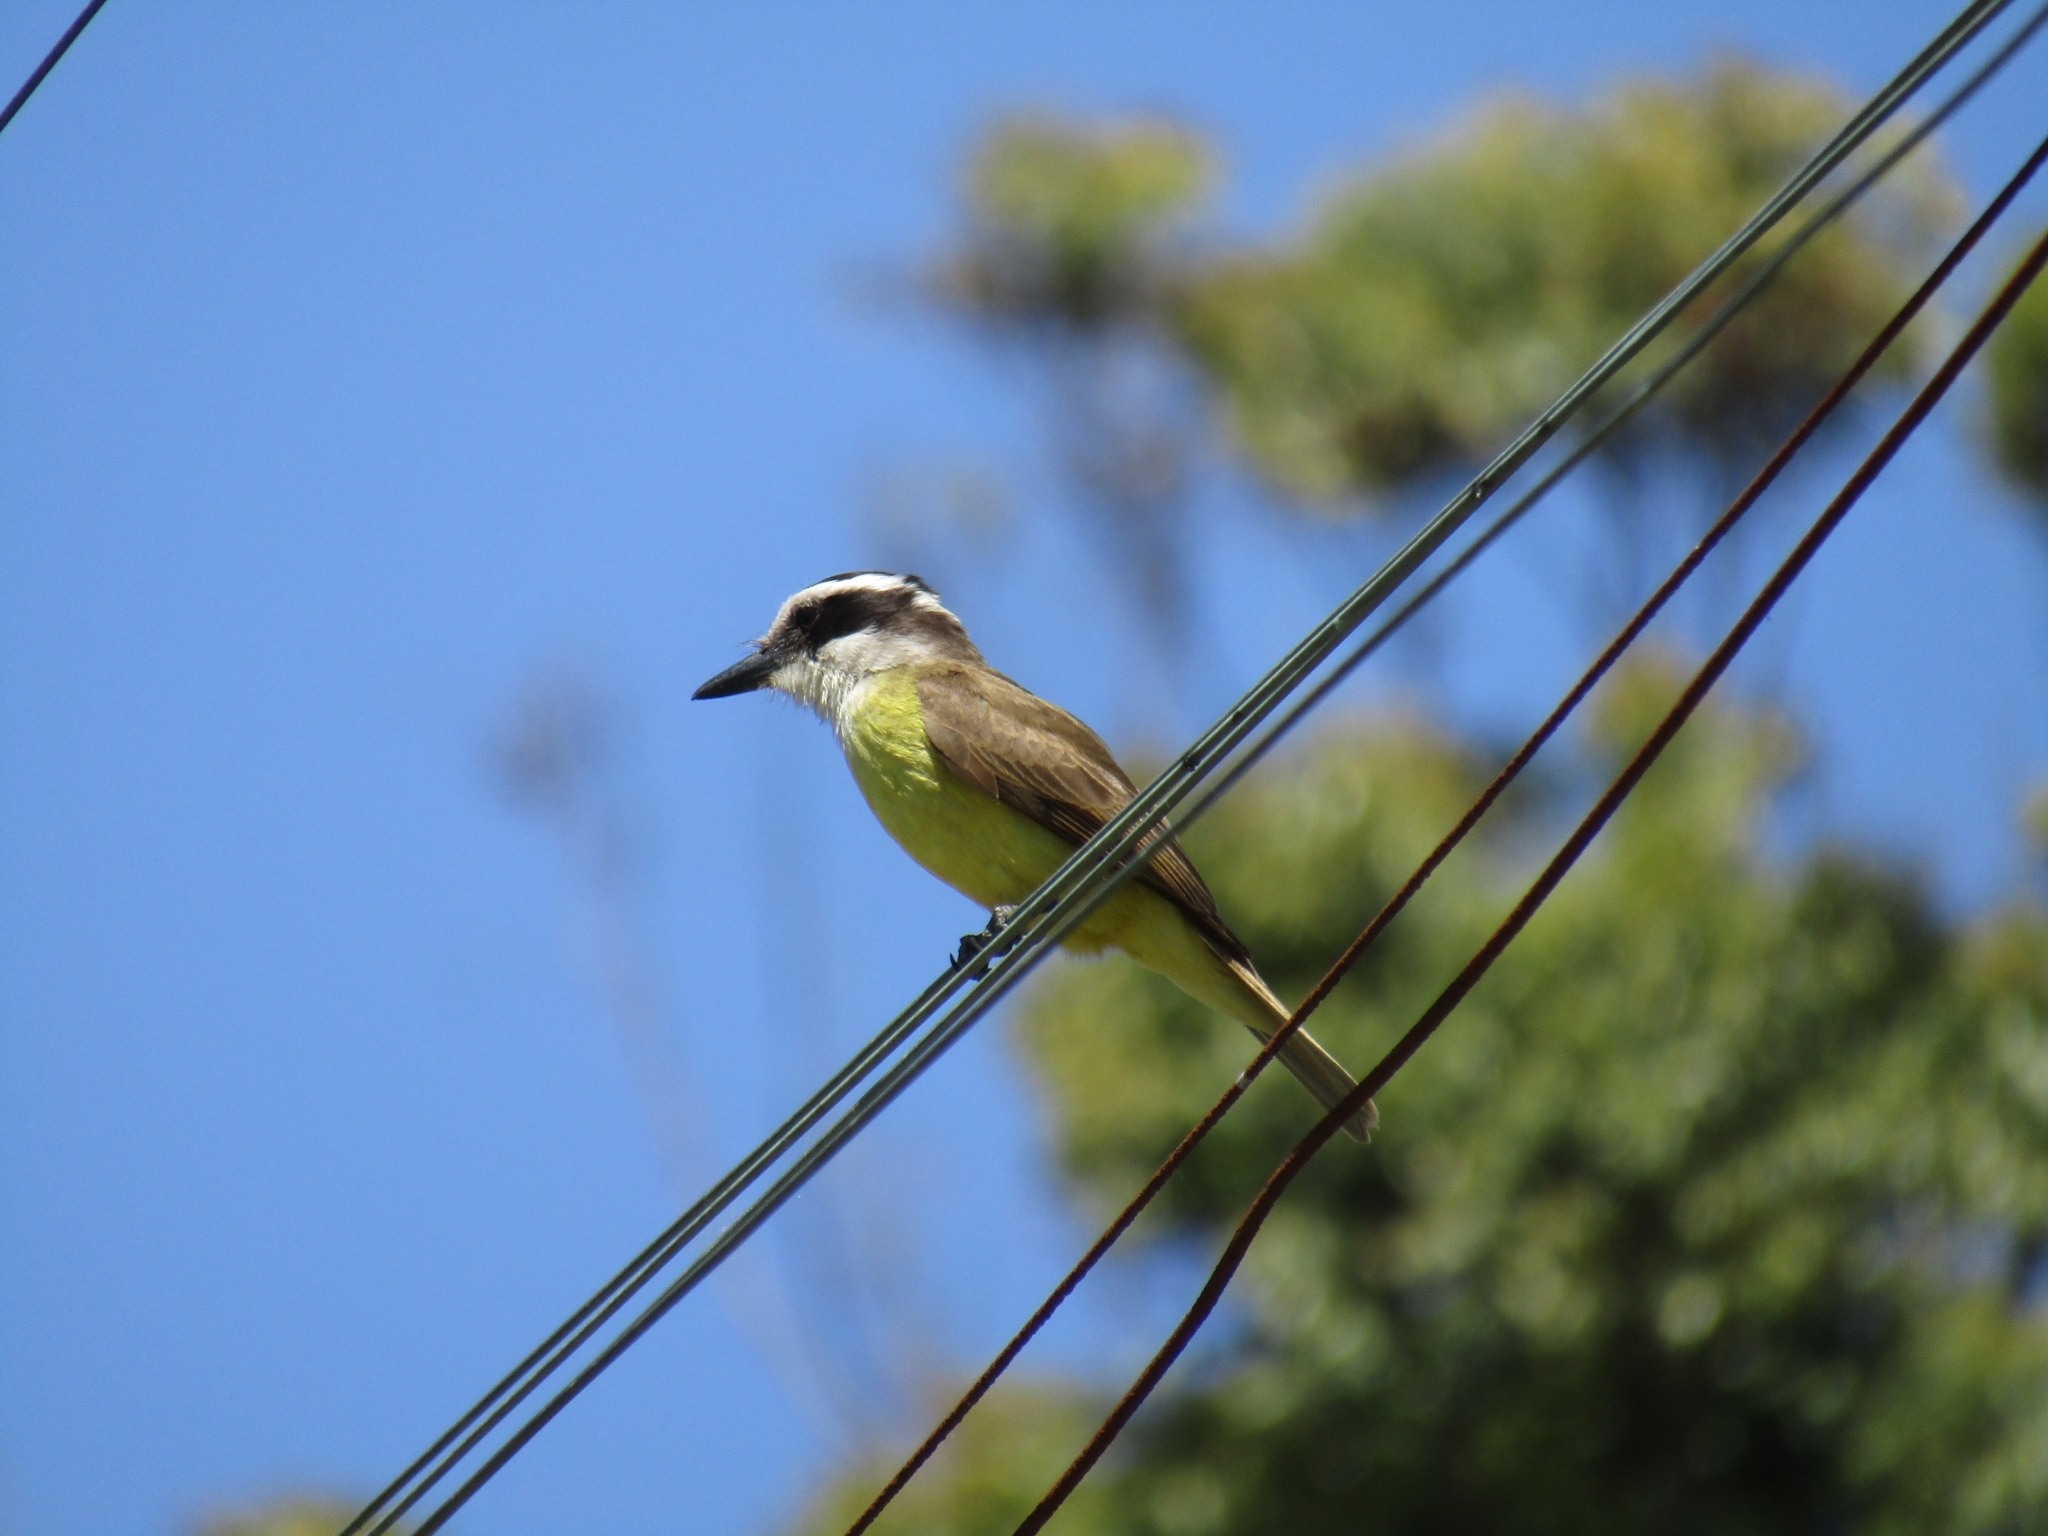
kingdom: Animalia
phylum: Chordata
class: Aves
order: Passeriformes
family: Tyrannidae
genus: Pitangus
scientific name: Pitangus sulphuratus
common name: Great kiskadee
